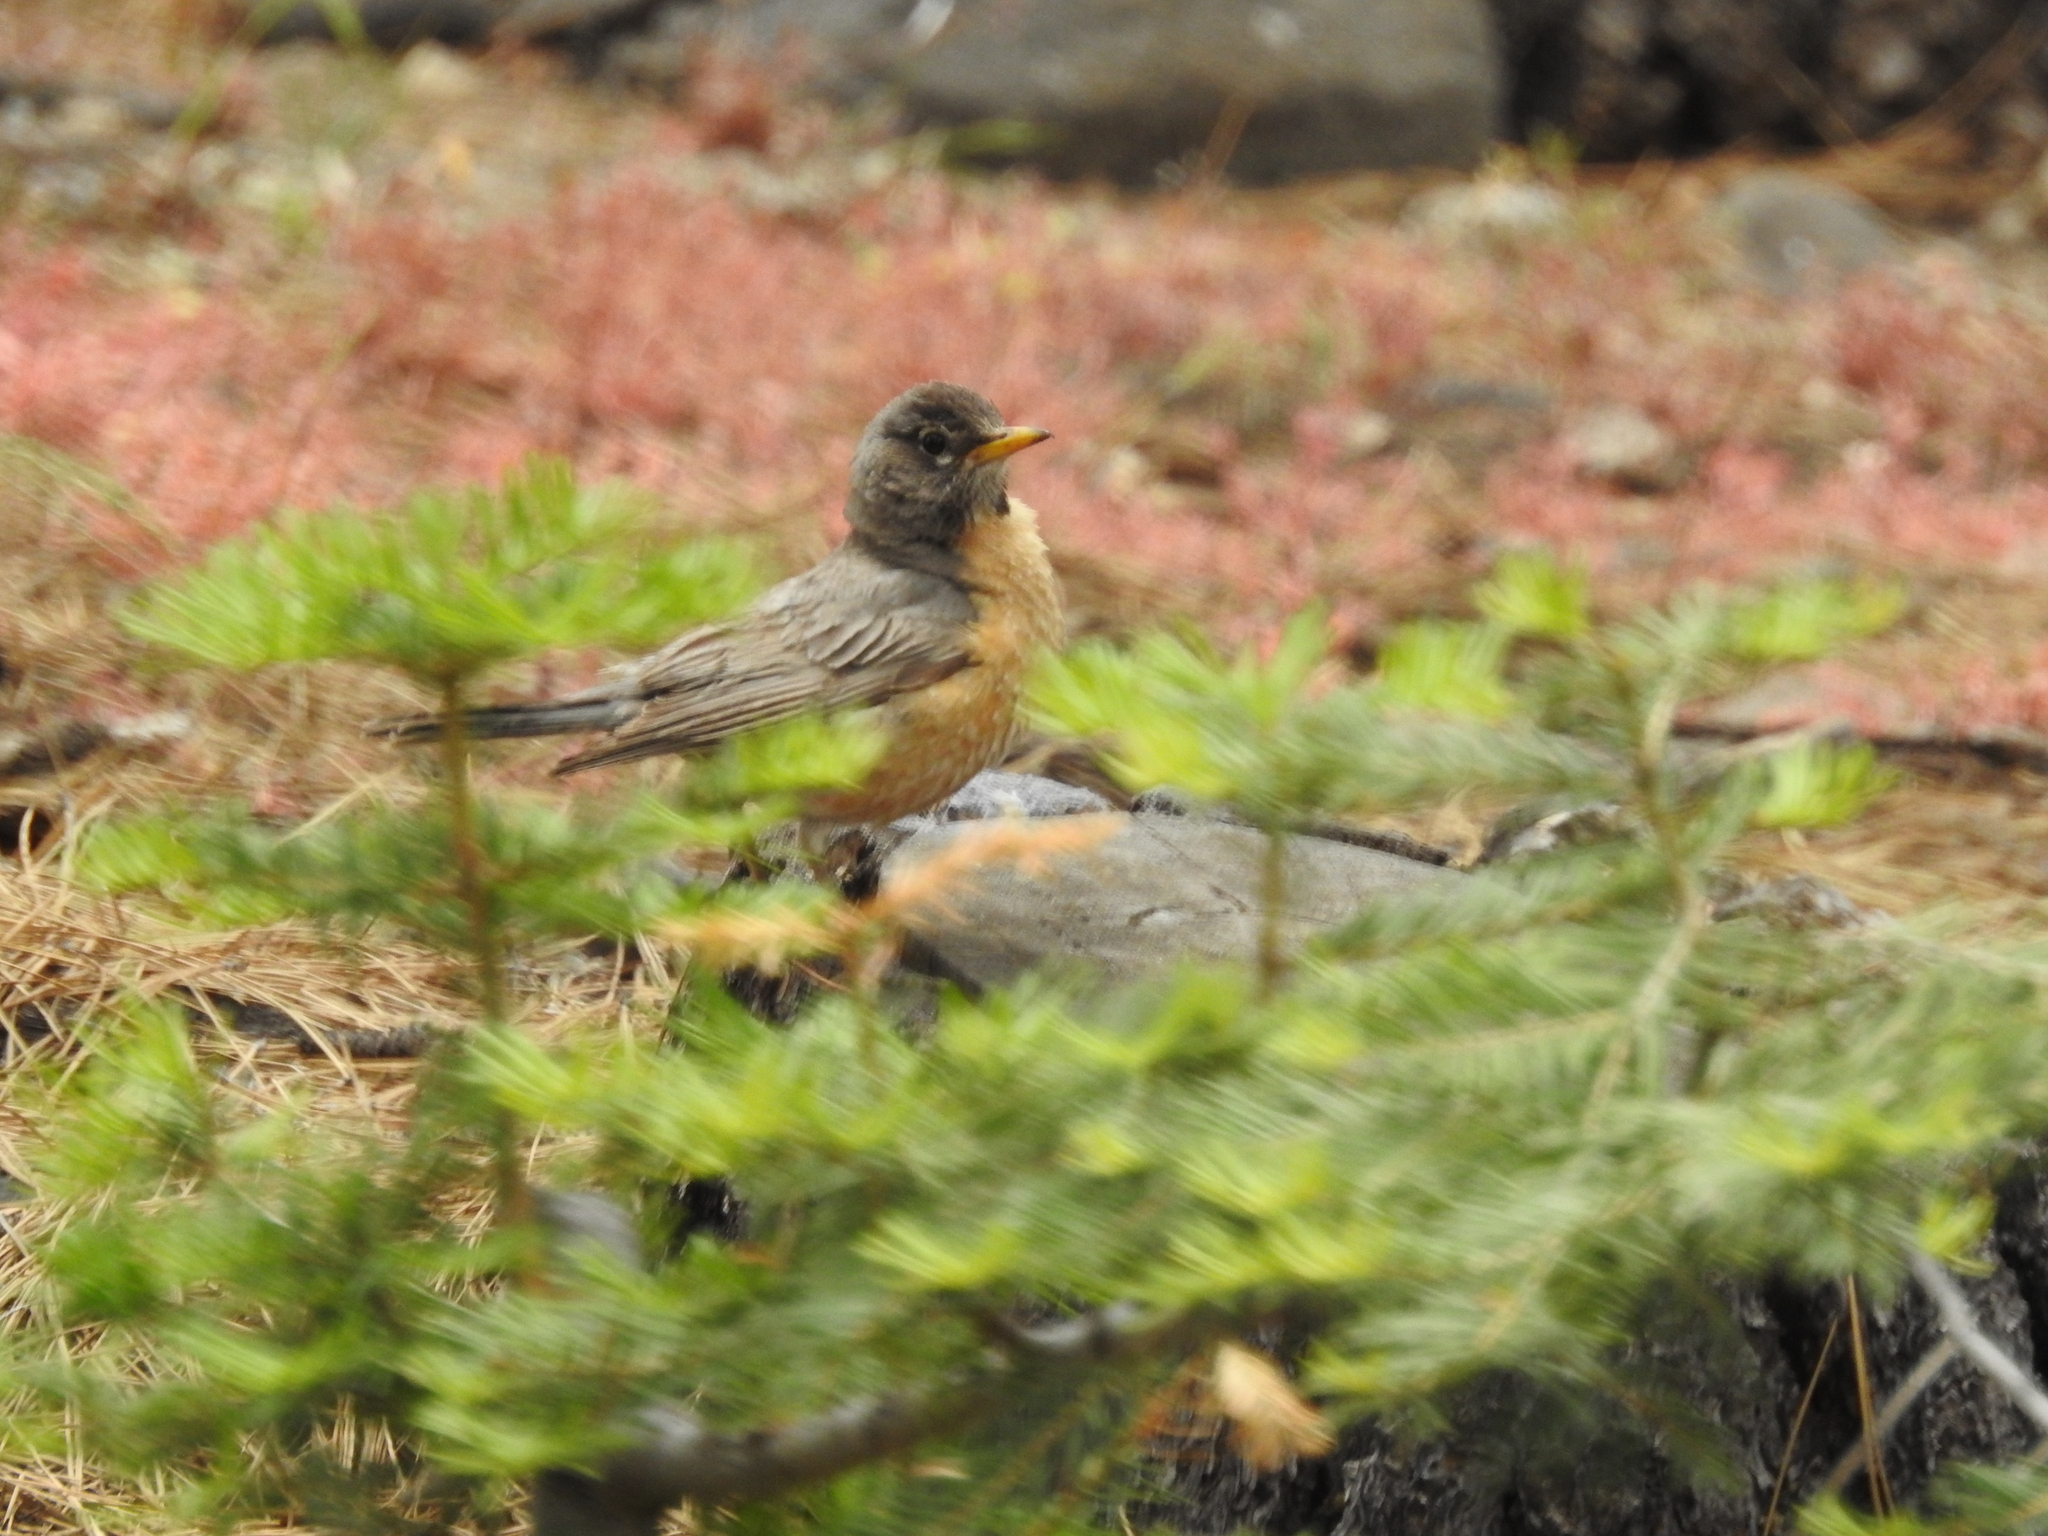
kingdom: Animalia
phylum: Chordata
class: Aves
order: Passeriformes
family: Turdidae
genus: Turdus
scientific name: Turdus migratorius
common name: American robin
